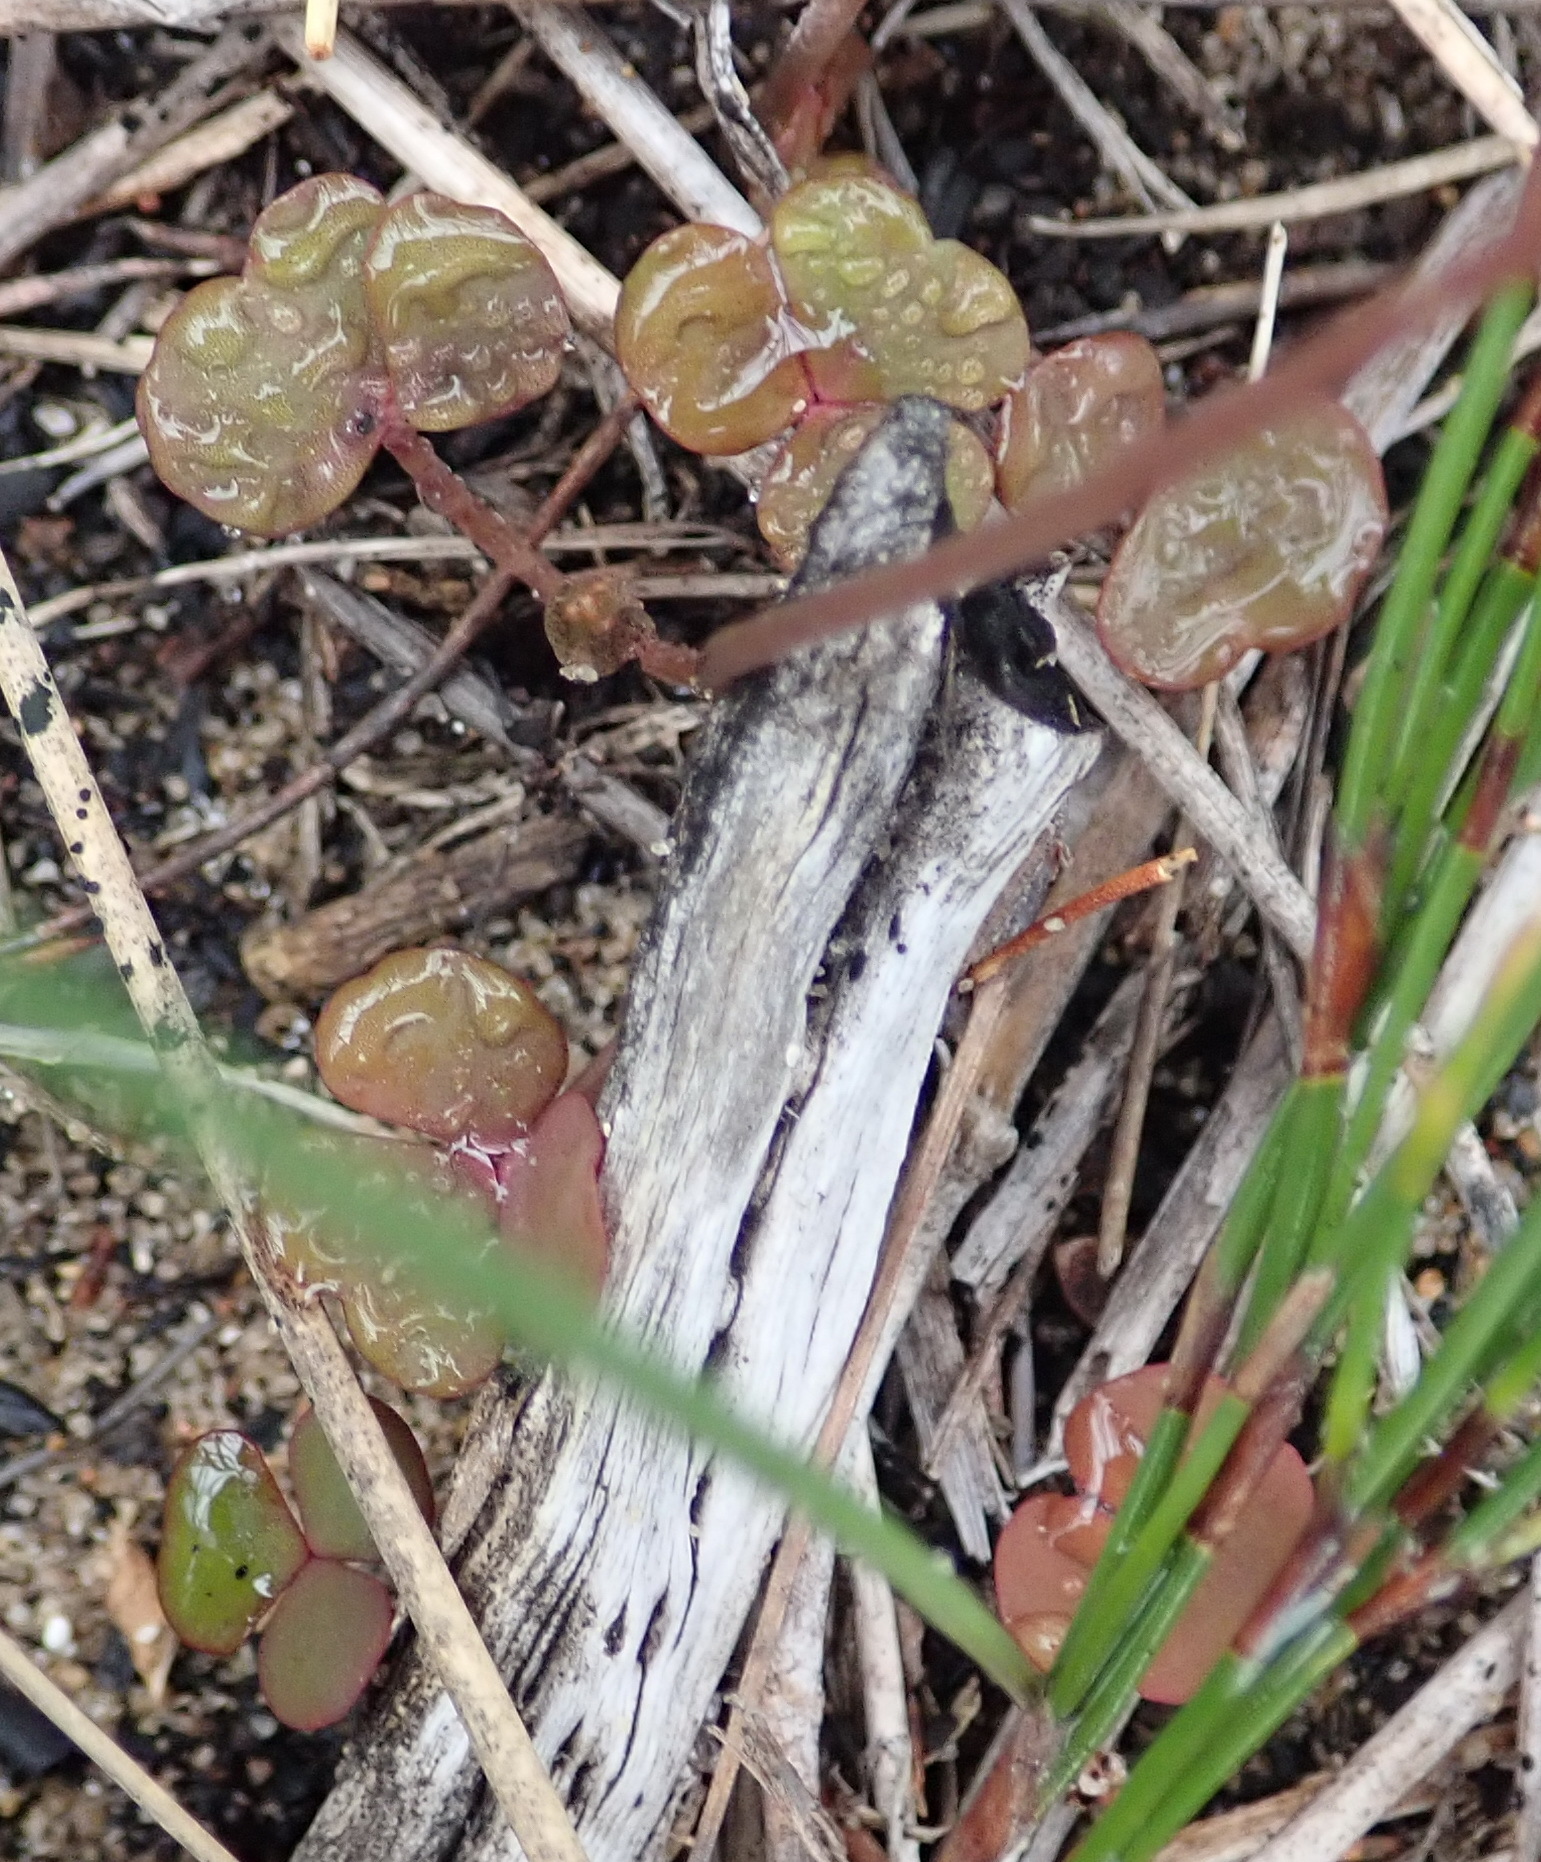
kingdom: Plantae
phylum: Tracheophyta
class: Magnoliopsida
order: Oxalidales
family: Oxalidaceae
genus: Oxalis
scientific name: Oxalis depressa
